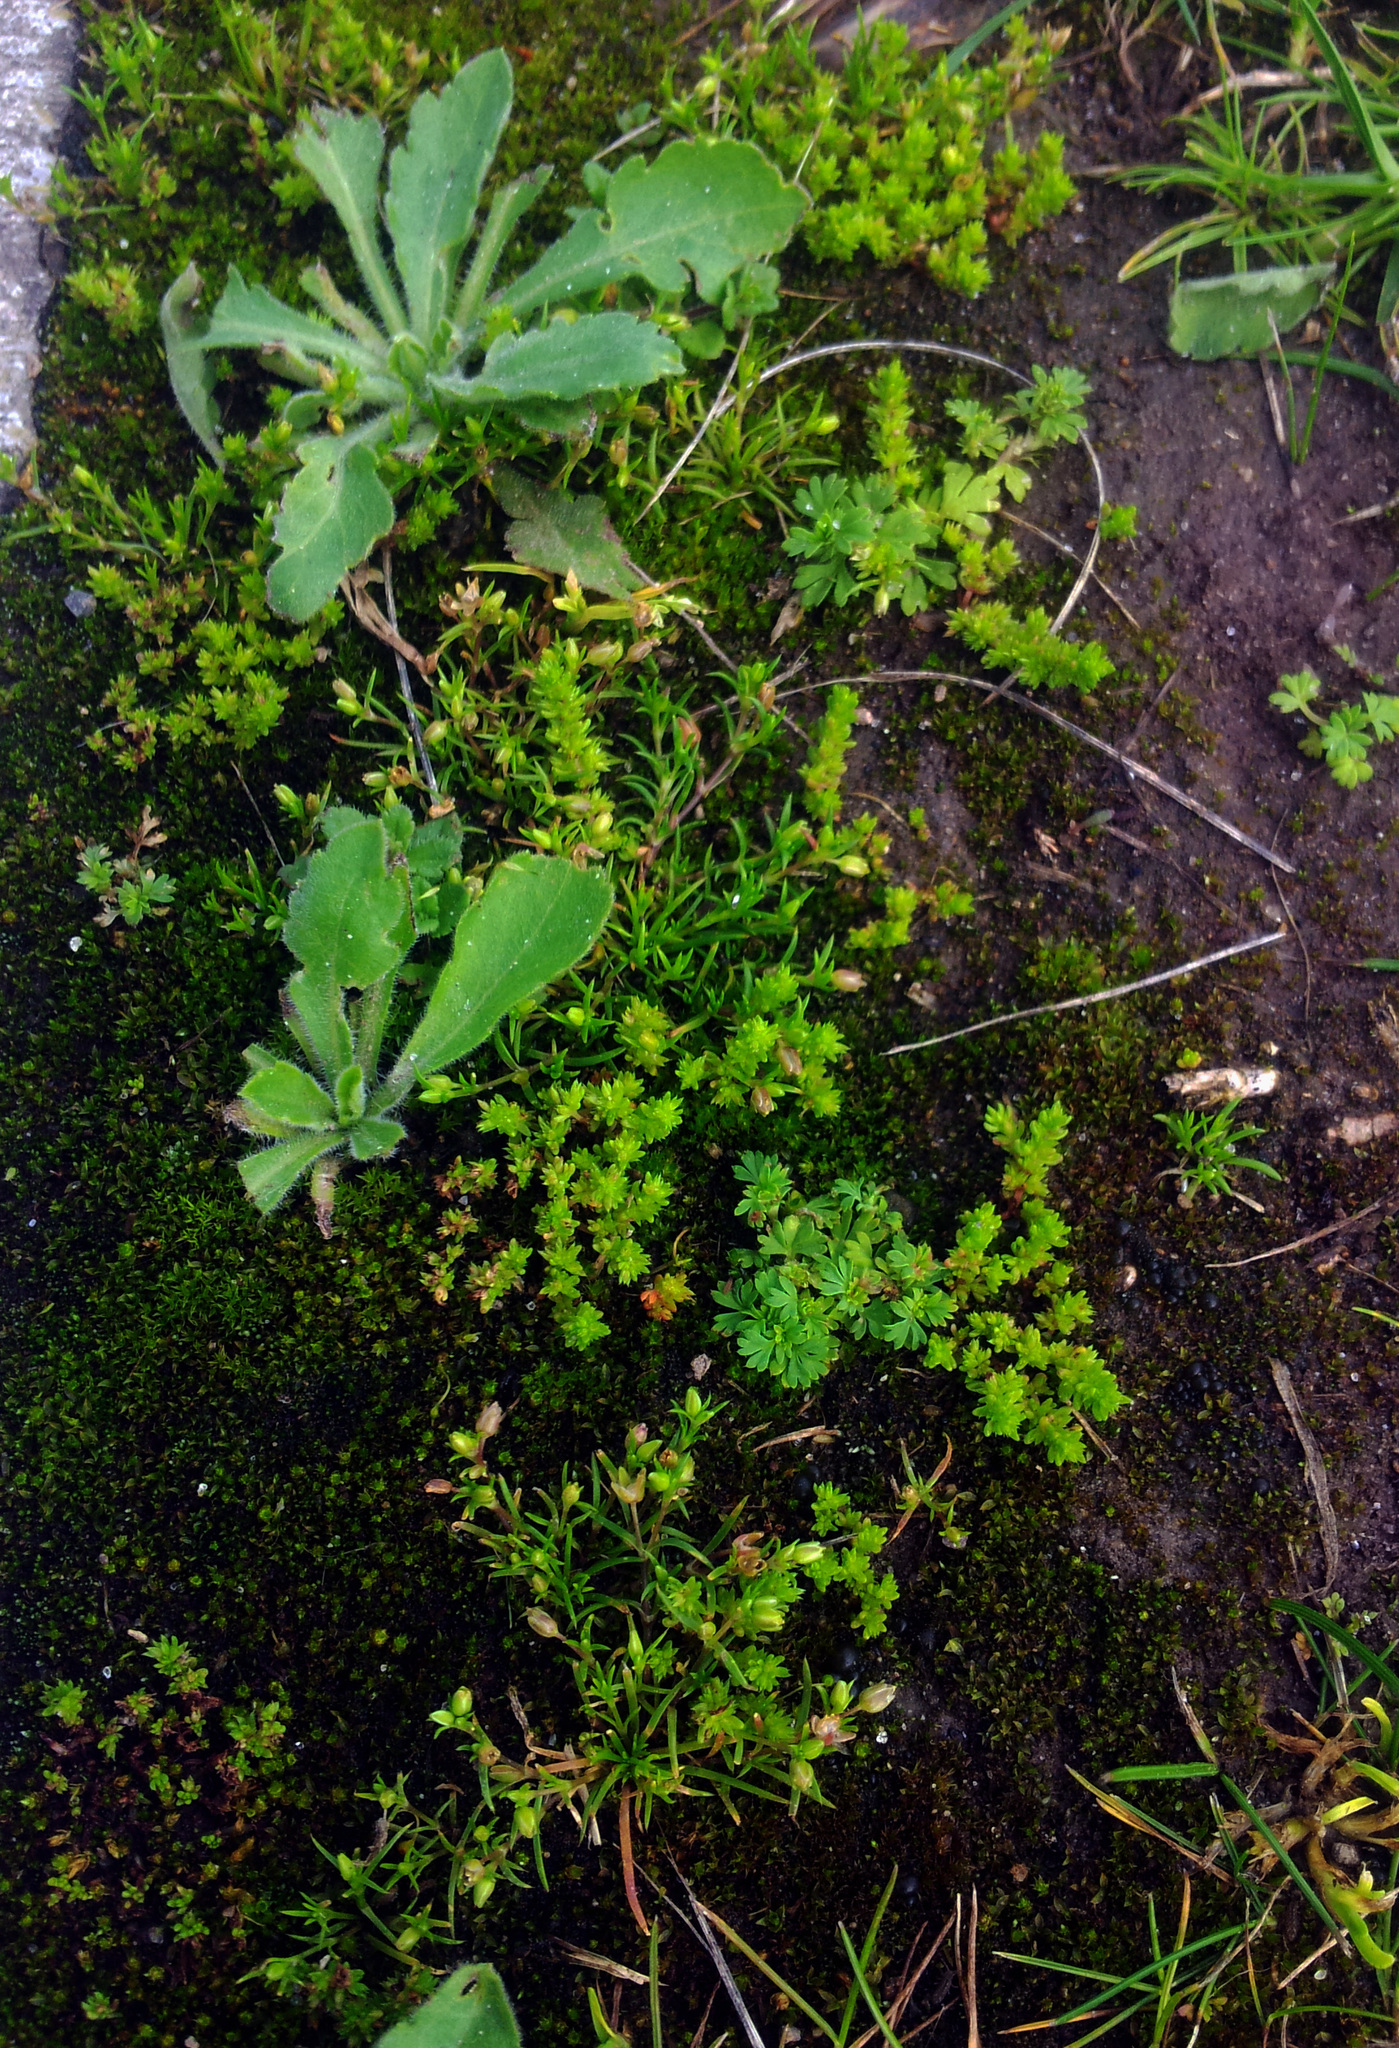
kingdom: Plantae
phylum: Tracheophyta
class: Magnoliopsida
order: Saxifragales
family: Crassulaceae
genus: Crassula
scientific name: Crassula alata
